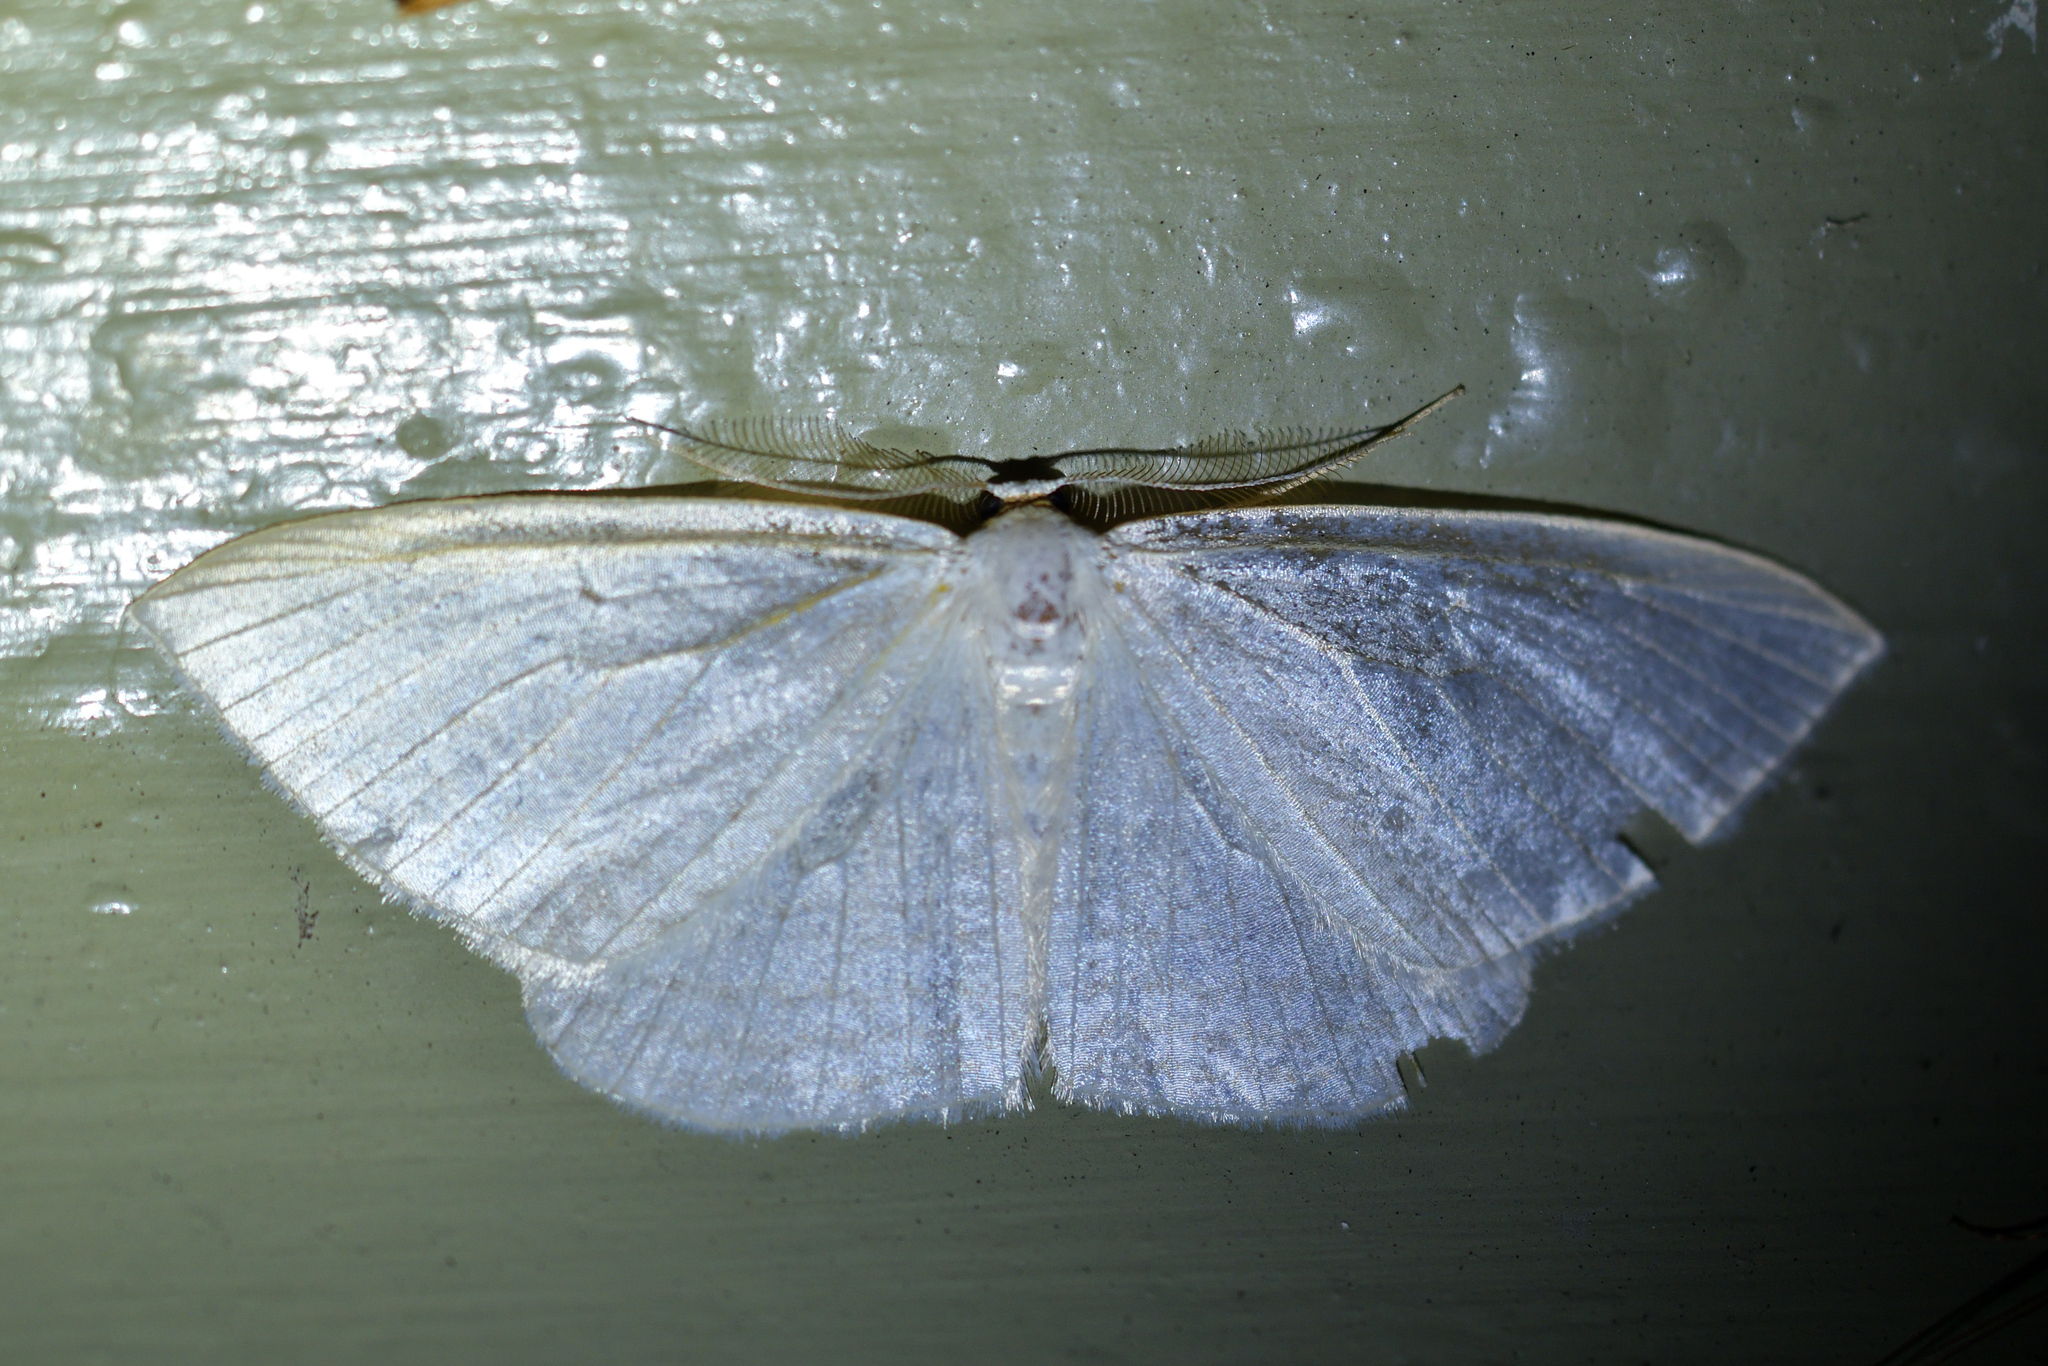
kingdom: Animalia
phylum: Arthropoda
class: Insecta
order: Lepidoptera
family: Geometridae
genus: Orthoclydon
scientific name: Orthoclydon praefectata
